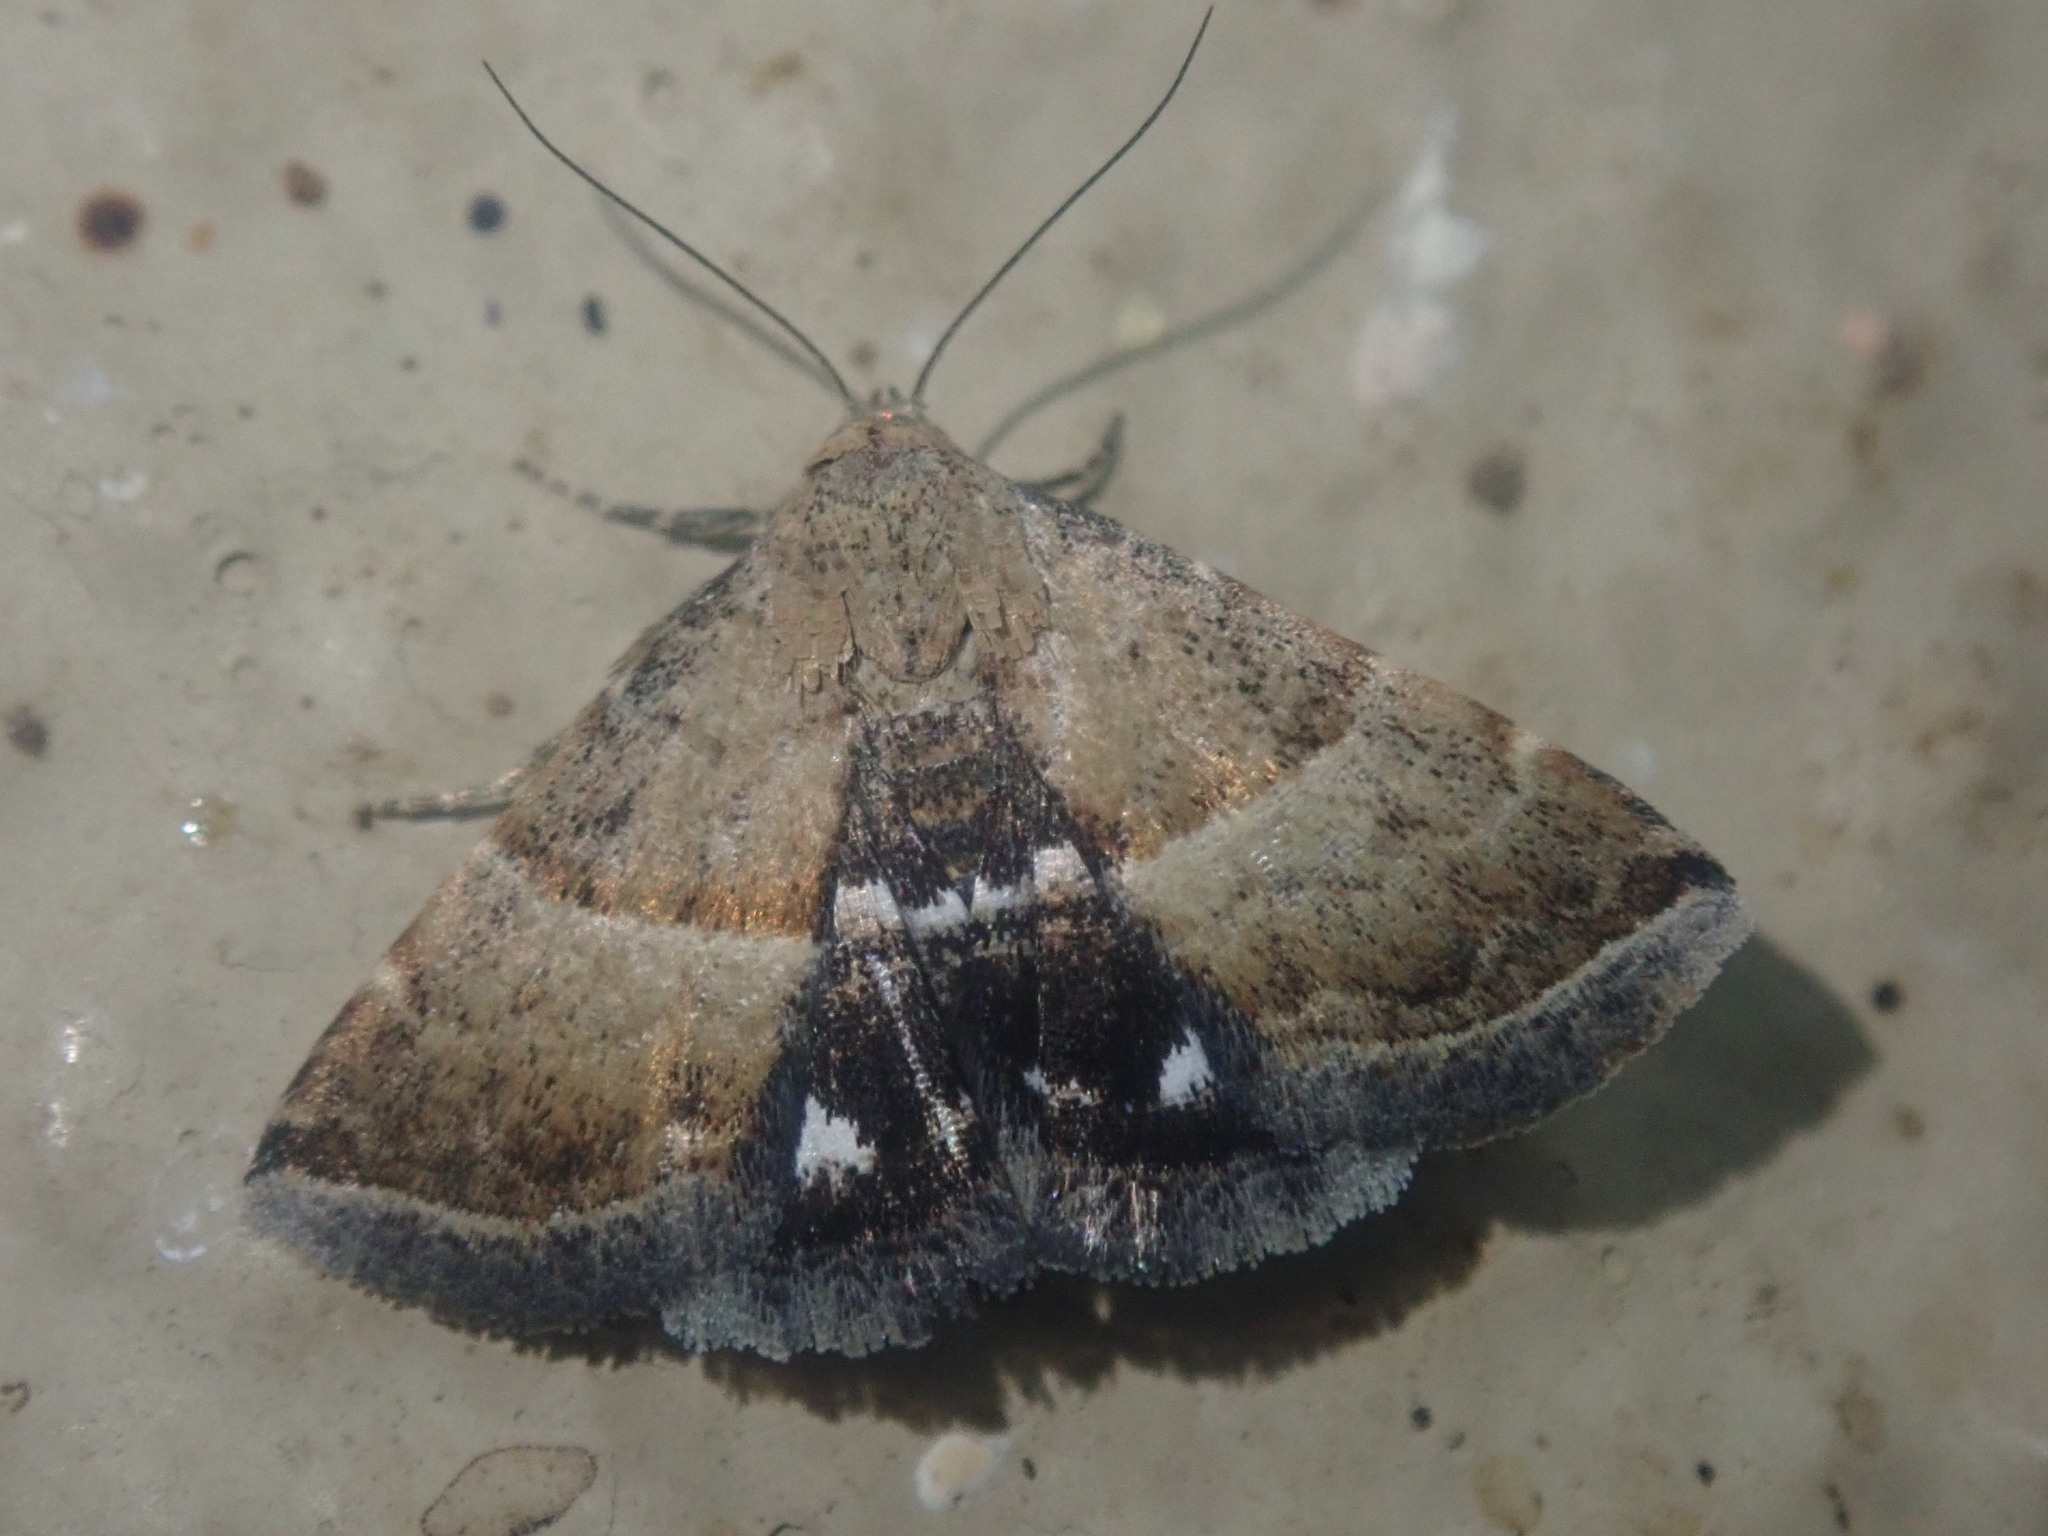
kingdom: Animalia
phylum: Arthropoda
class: Insecta
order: Lepidoptera
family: Noctuidae
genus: Eublemma
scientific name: Eublemma bolinia
